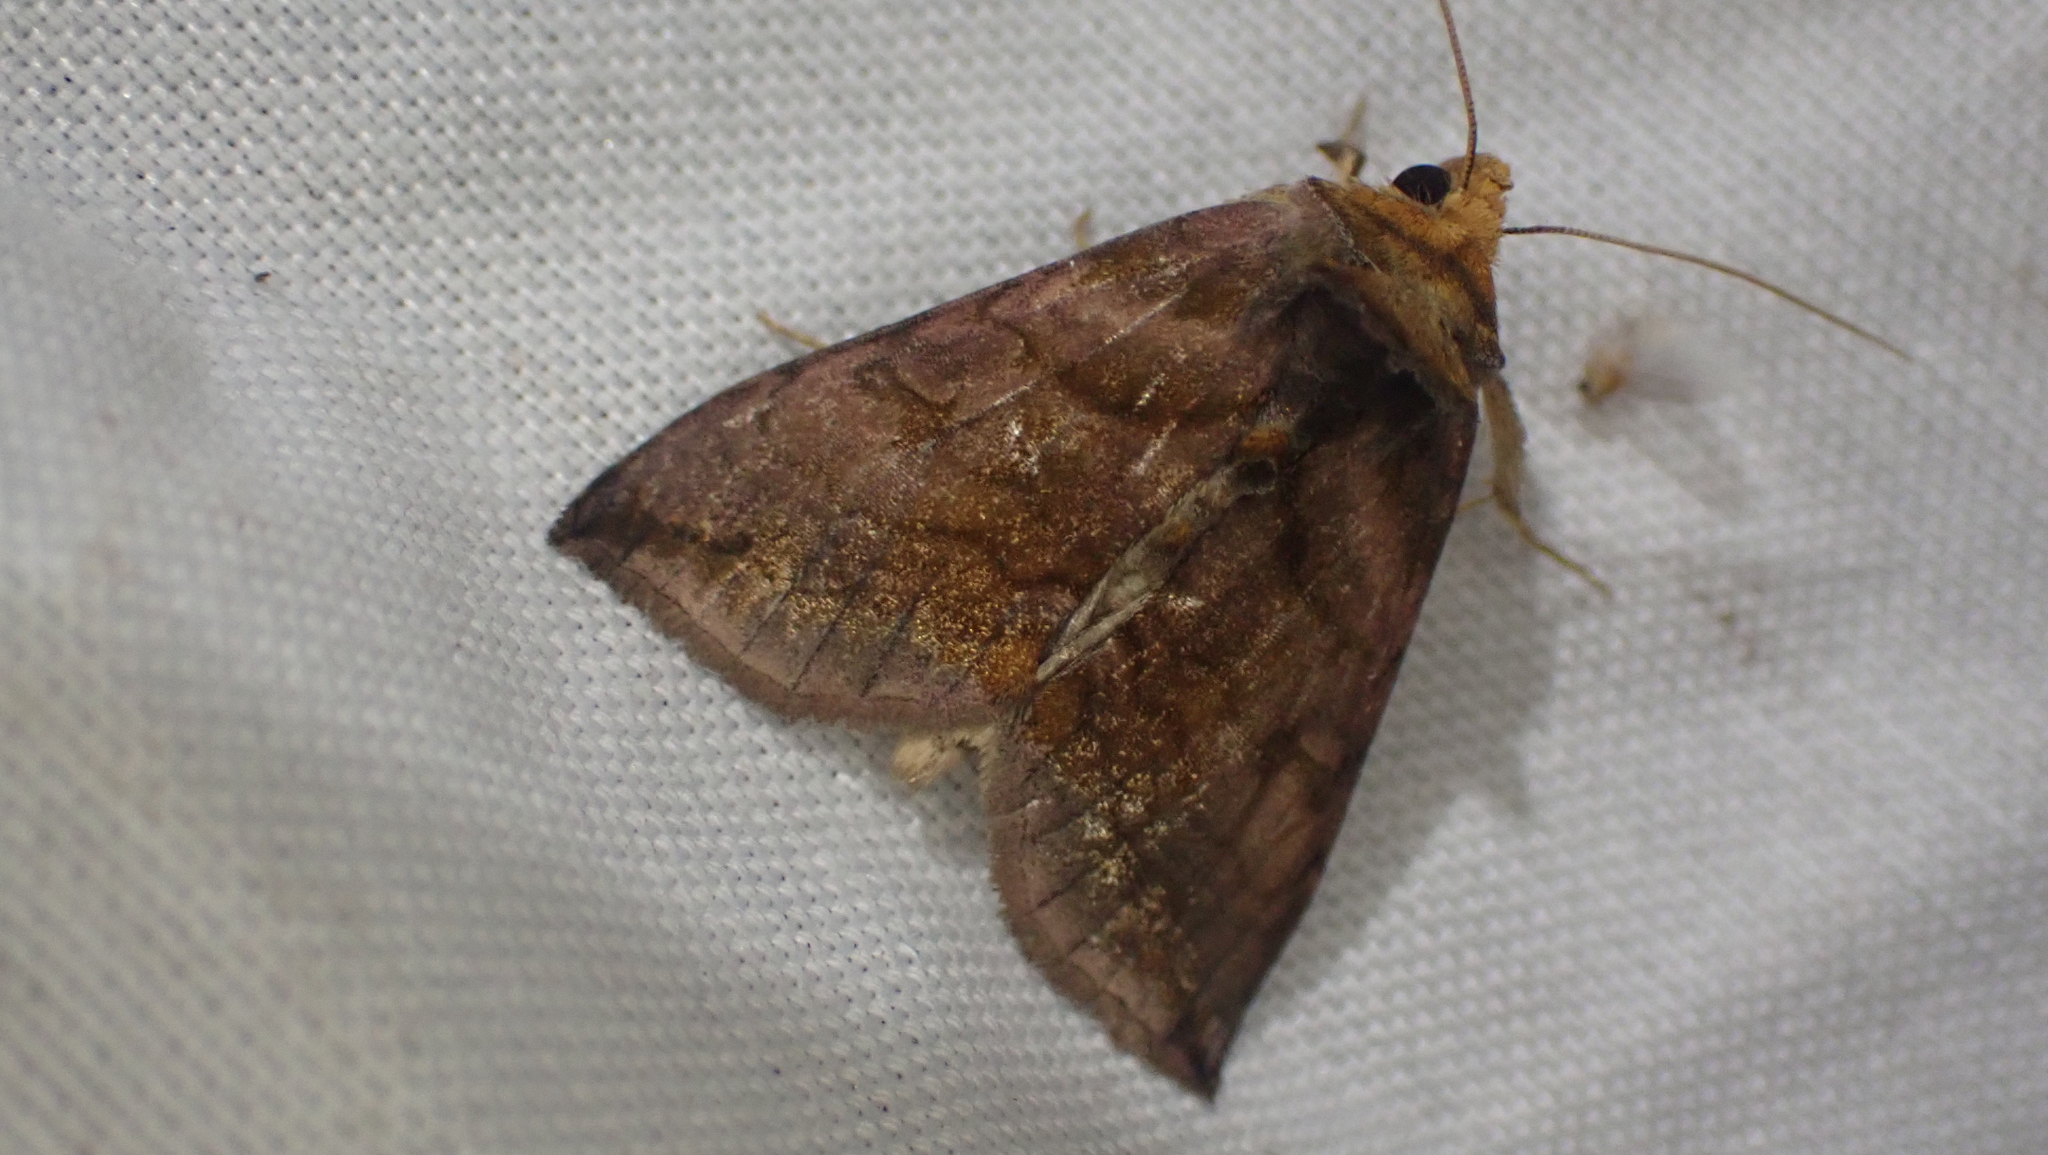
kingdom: Animalia
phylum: Arthropoda
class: Insecta
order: Lepidoptera
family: Noctuidae
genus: Allagrapha
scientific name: Allagrapha aerea
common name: Unspotted looper moth
